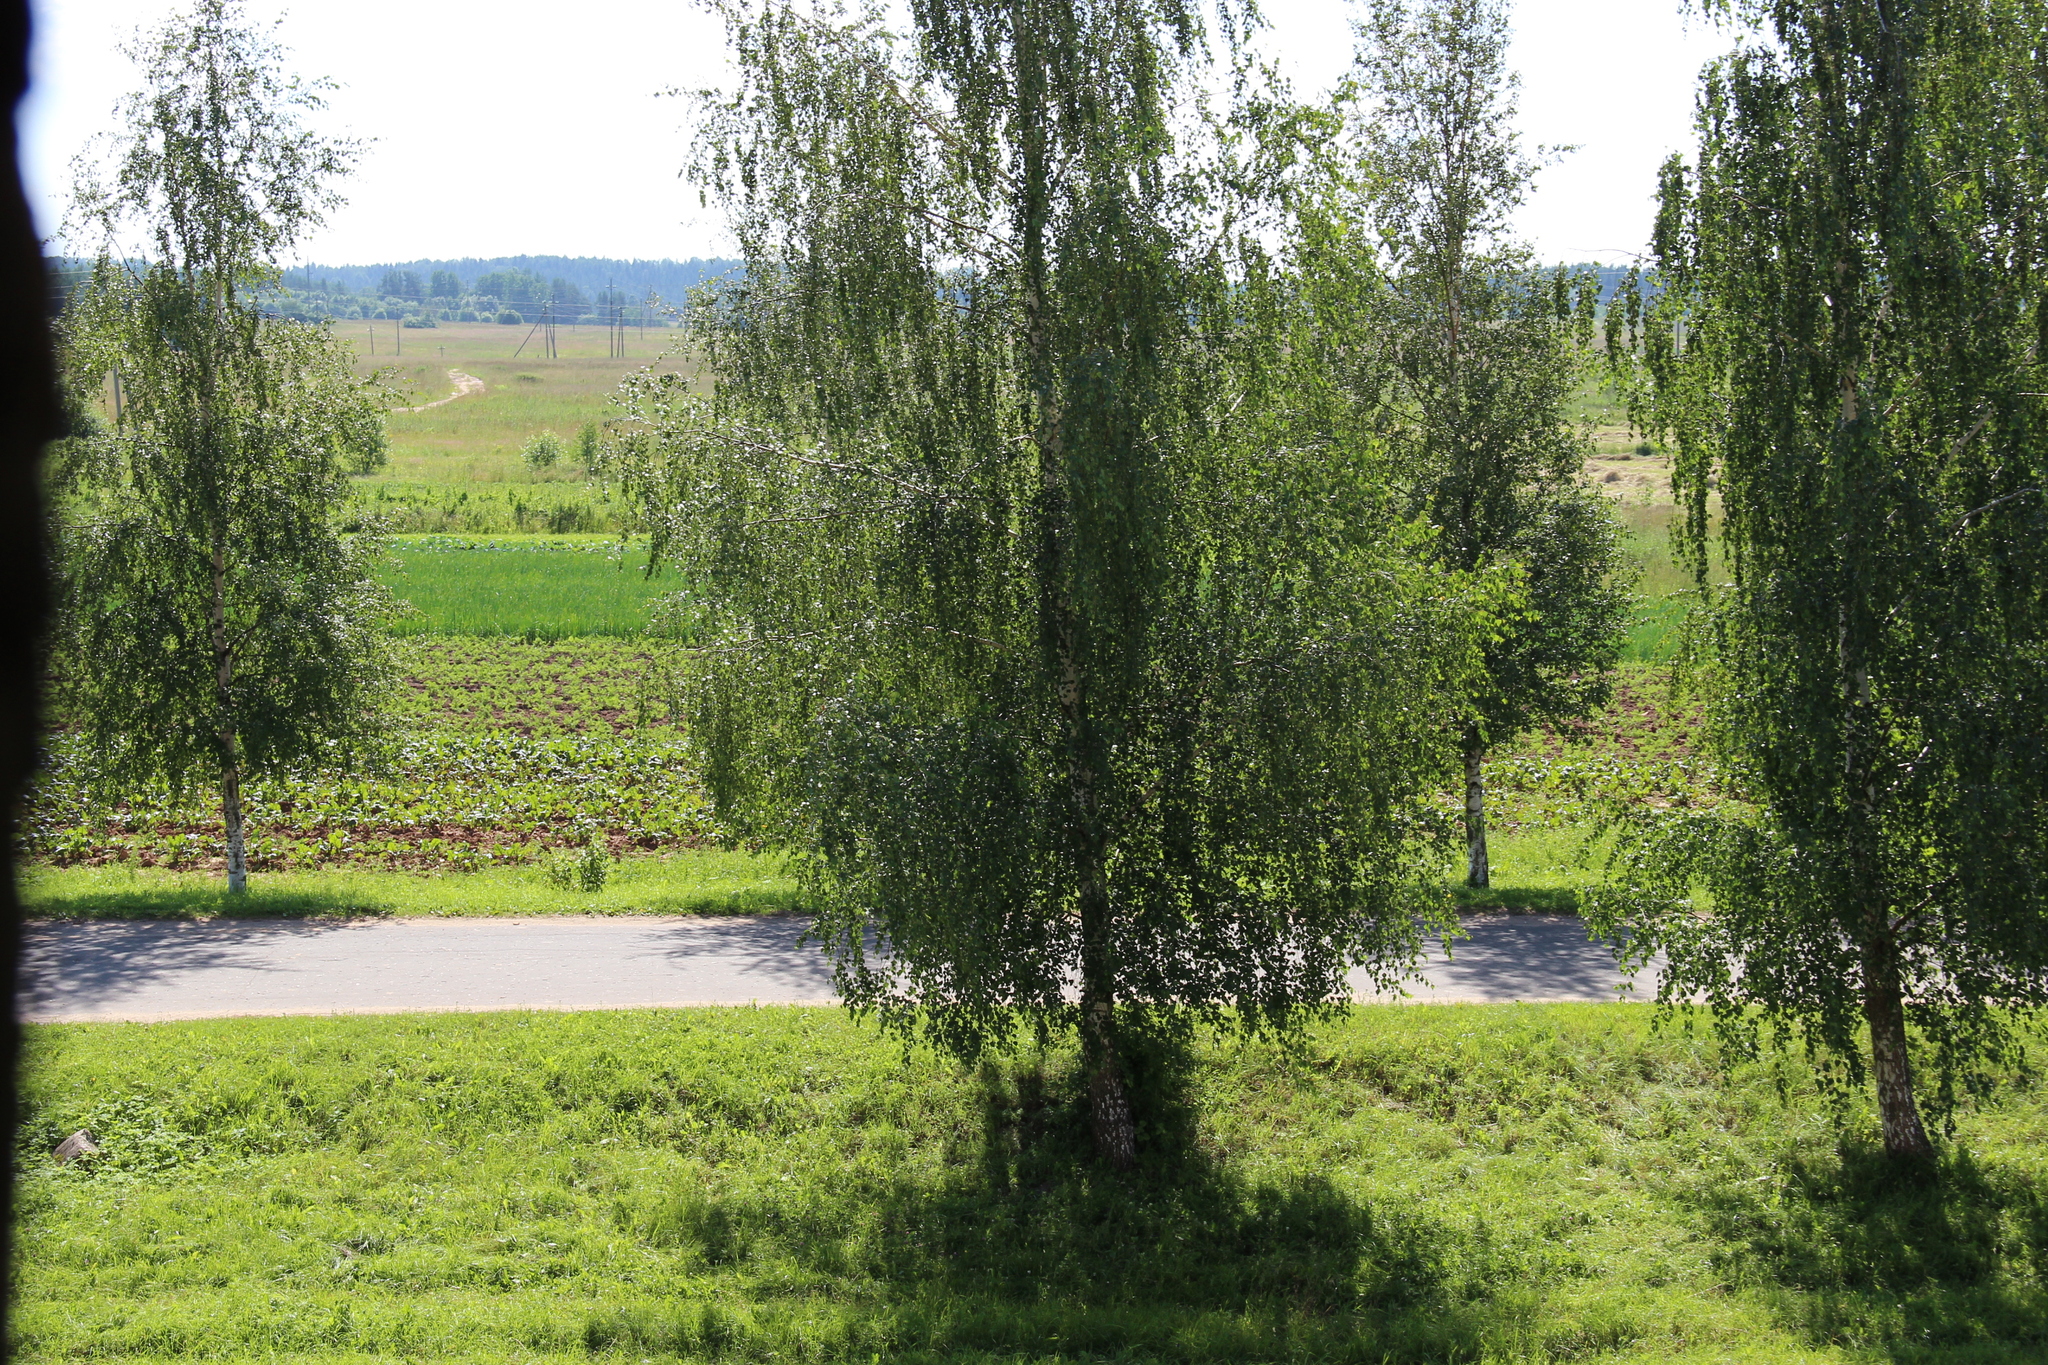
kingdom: Plantae
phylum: Tracheophyta
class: Magnoliopsida
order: Fagales
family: Betulaceae
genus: Betula
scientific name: Betula pendula
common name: Silver birch
